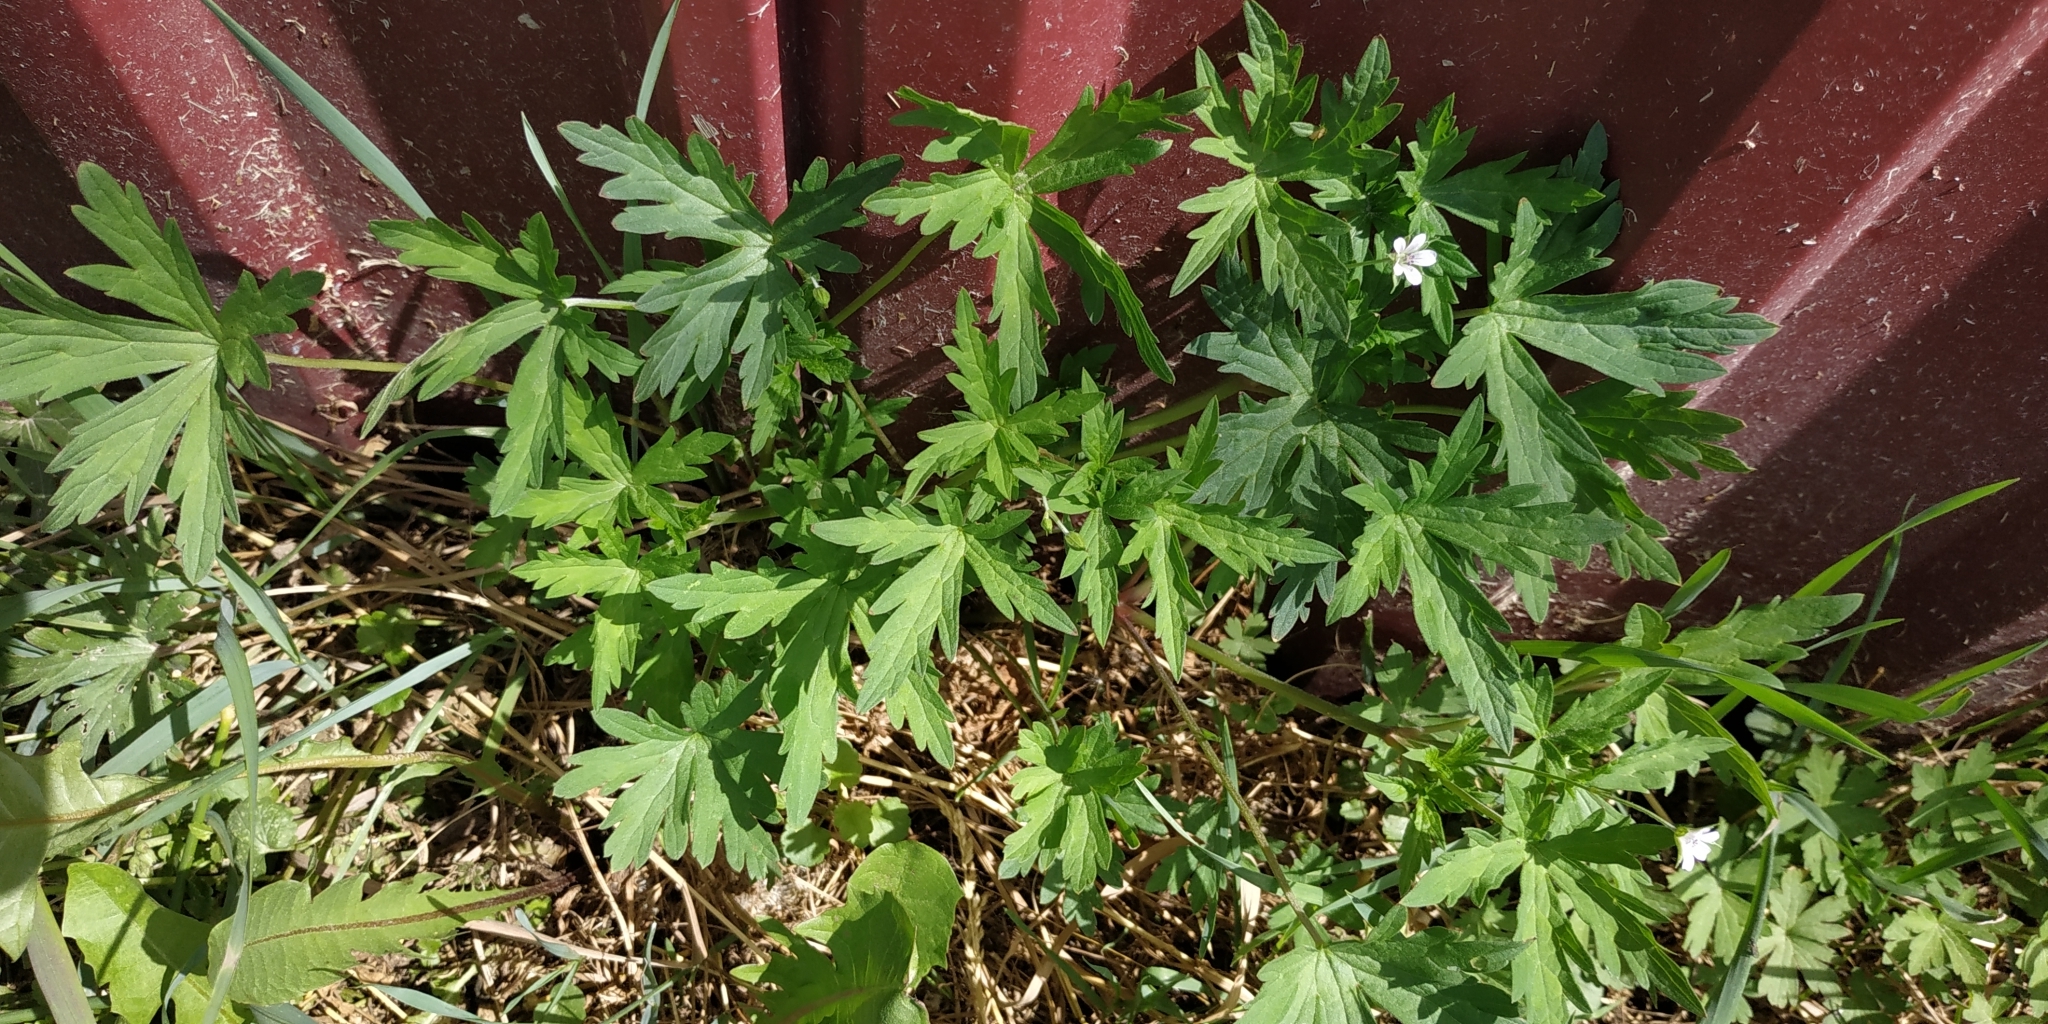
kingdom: Plantae
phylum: Tracheophyta
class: Magnoliopsida
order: Geraniales
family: Geraniaceae
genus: Geranium
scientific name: Geranium sibiricum
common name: Siberian crane's-bill
